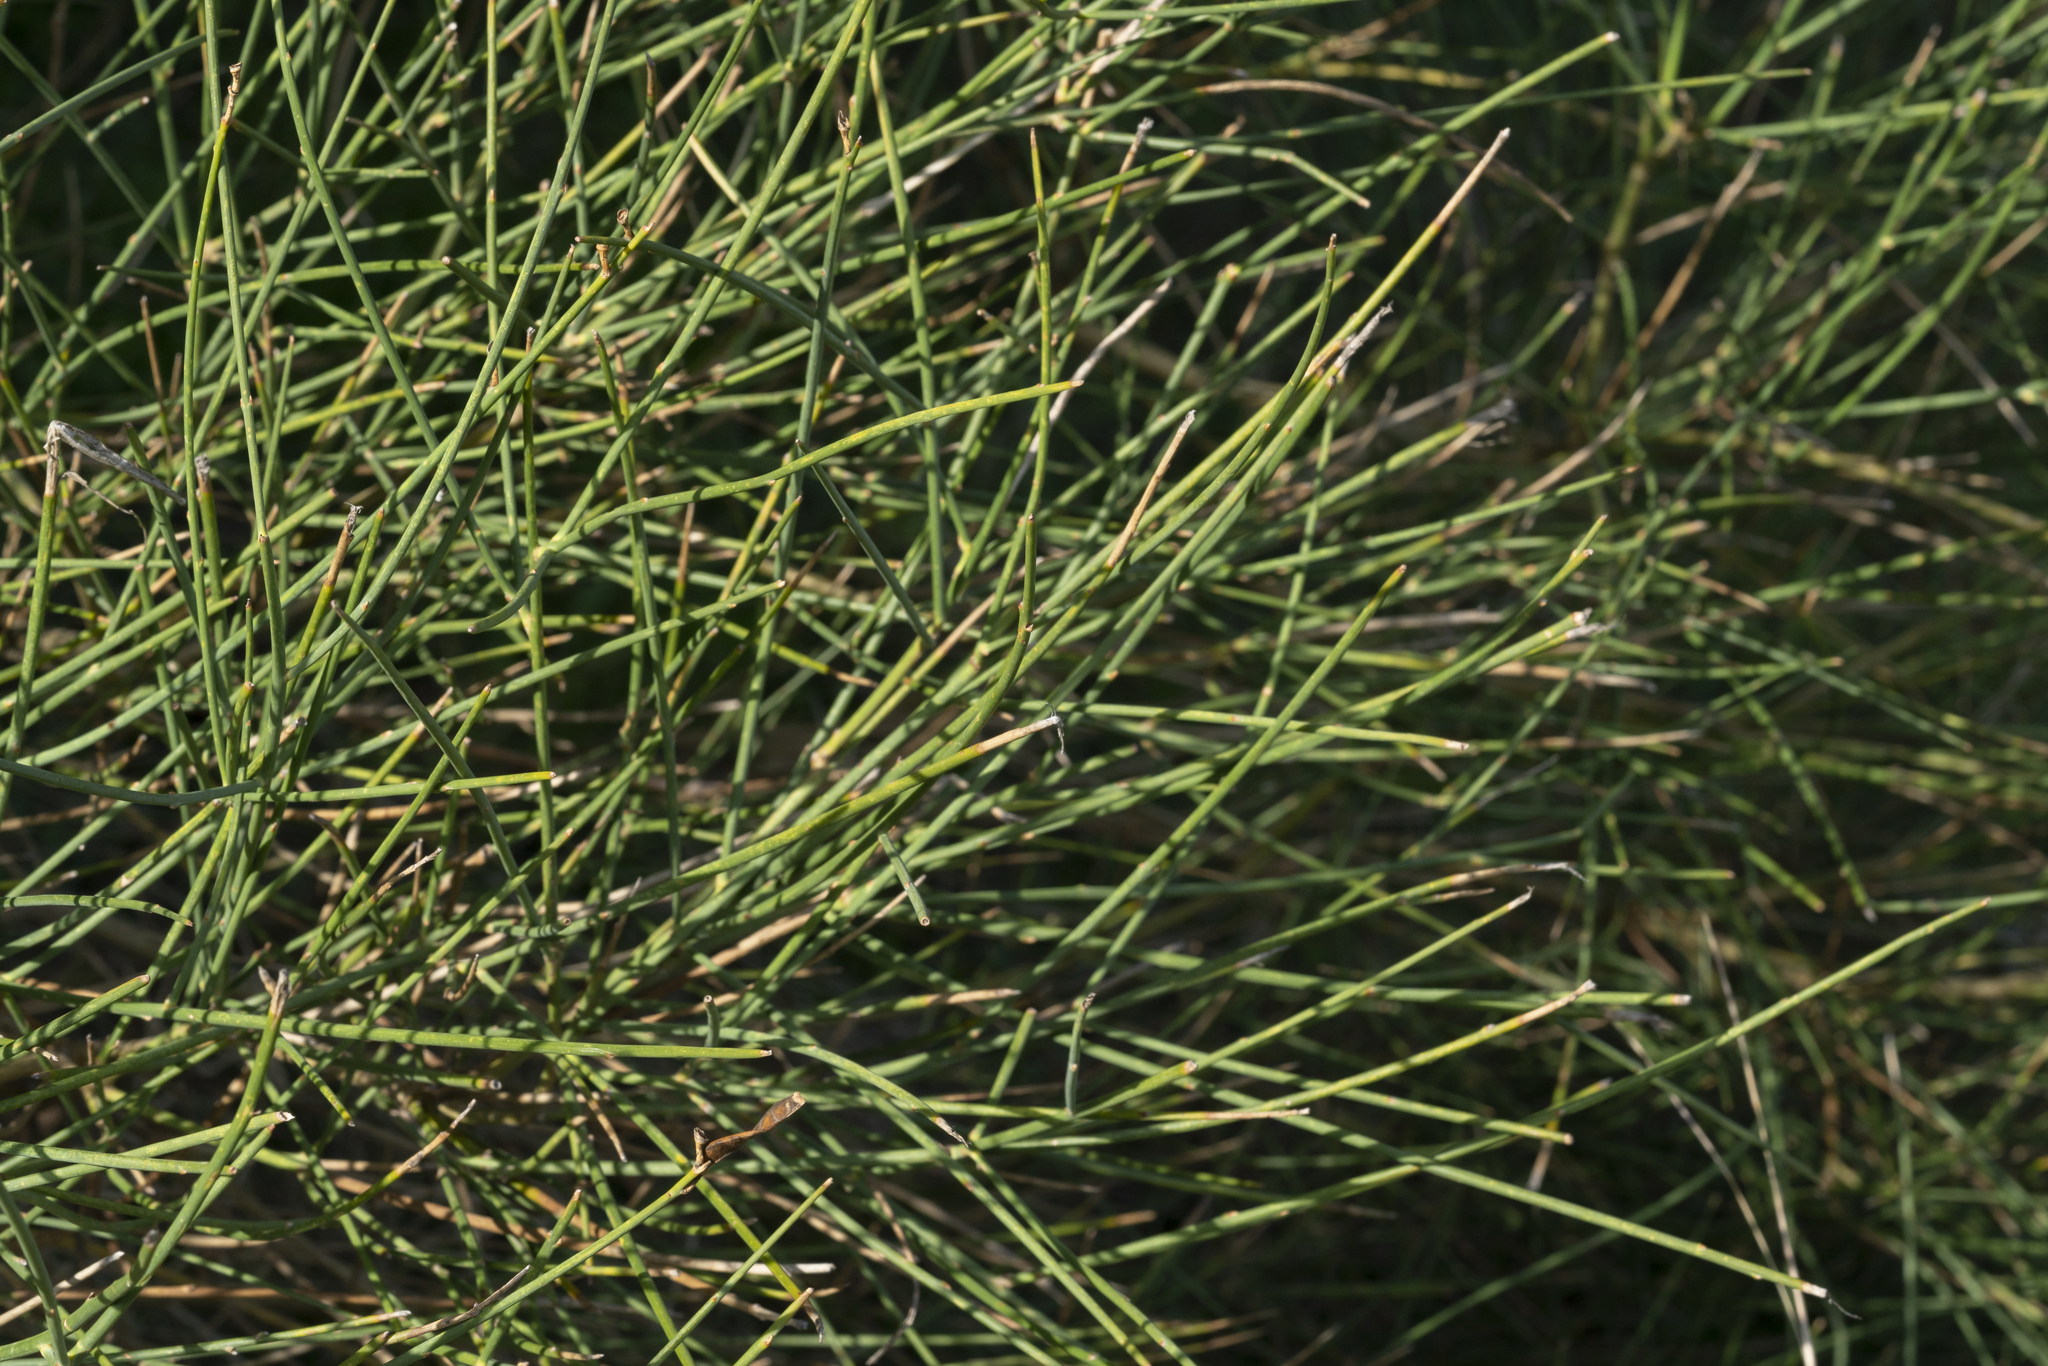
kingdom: Plantae
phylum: Tracheophyta
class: Magnoliopsida
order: Fabales
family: Fabaceae
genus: Spartium
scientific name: Spartium junceum
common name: Spanish broom
